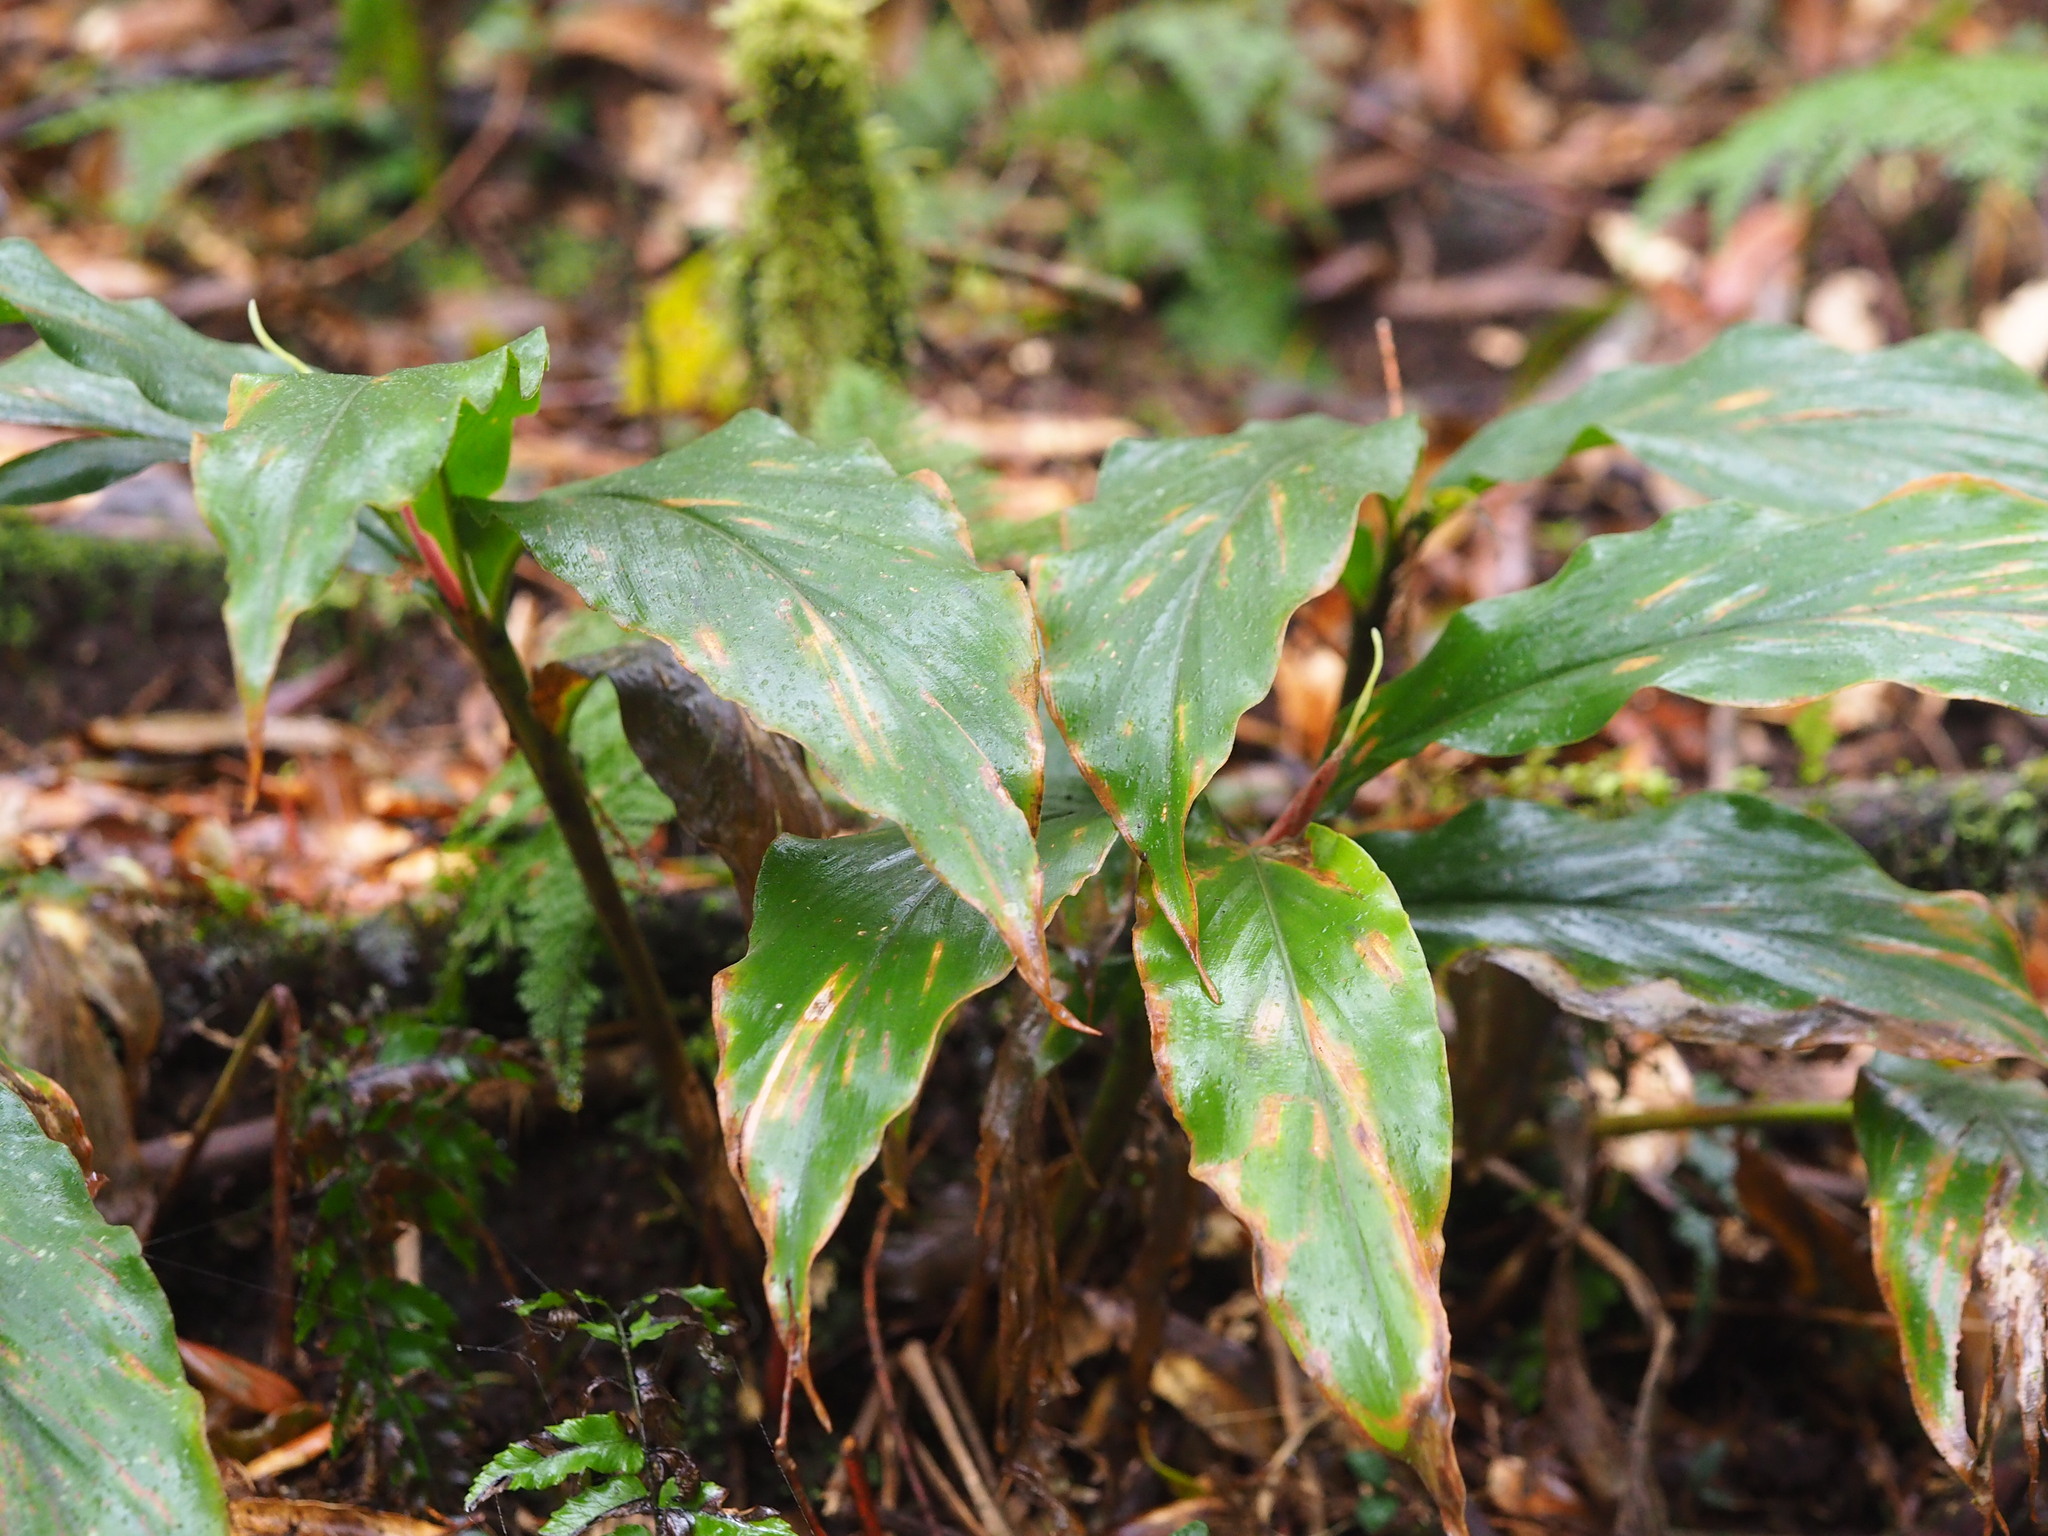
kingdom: Plantae
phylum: Tracheophyta
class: Liliopsida
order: Zingiberales
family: Zingiberaceae
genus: Alpinia
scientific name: Alpinia japonica
